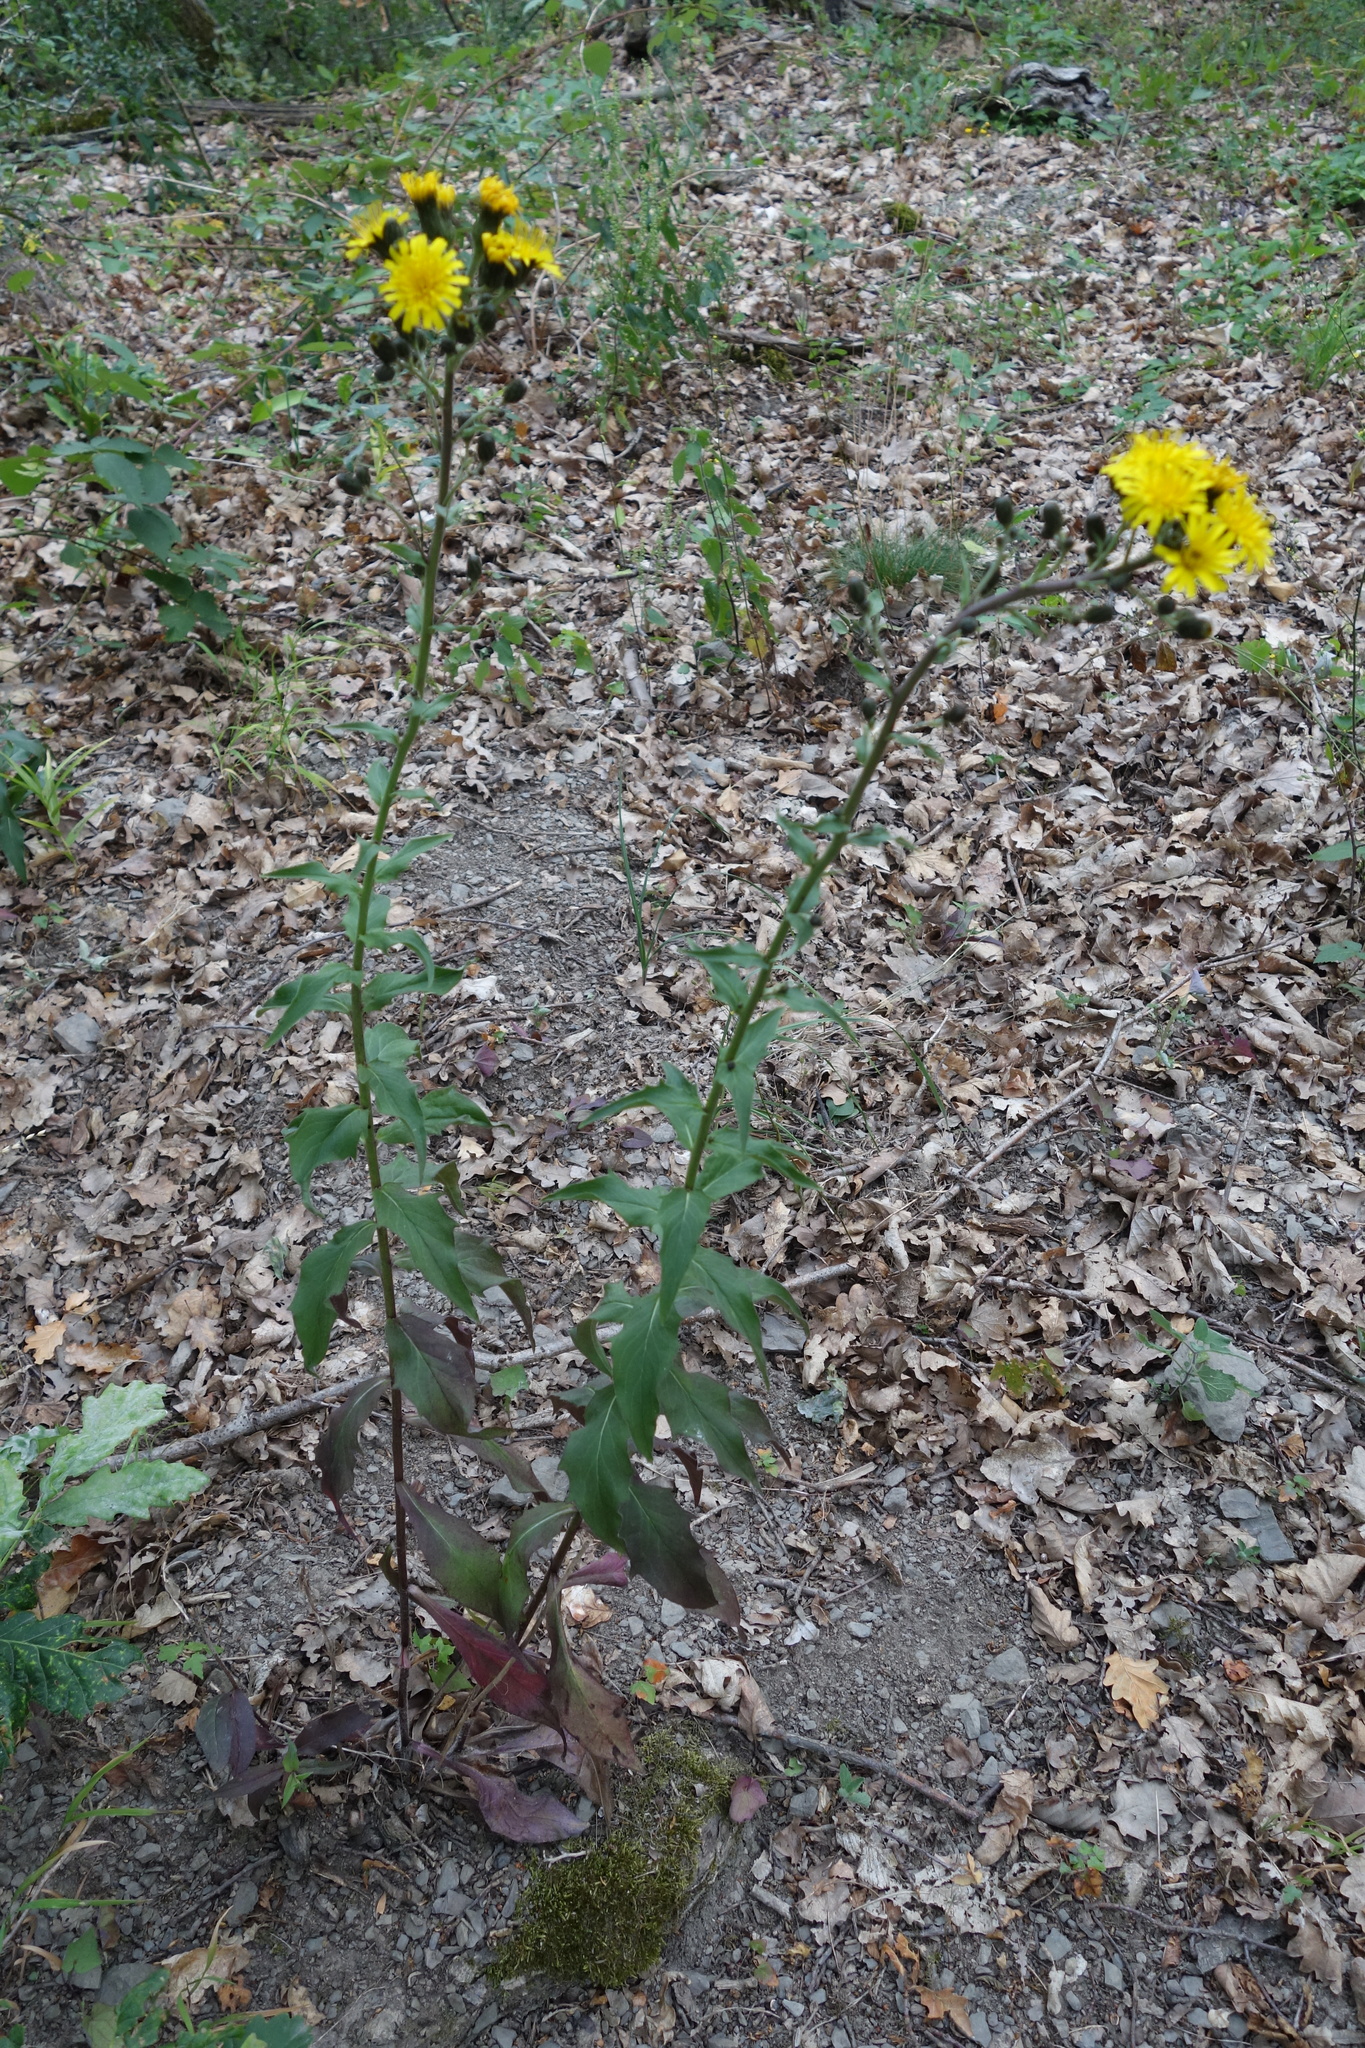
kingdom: Plantae
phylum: Tracheophyta
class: Magnoliopsida
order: Asterales
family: Asteraceae
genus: Hieracium
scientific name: Hieracium umbellatum
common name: Northern hawkweed
